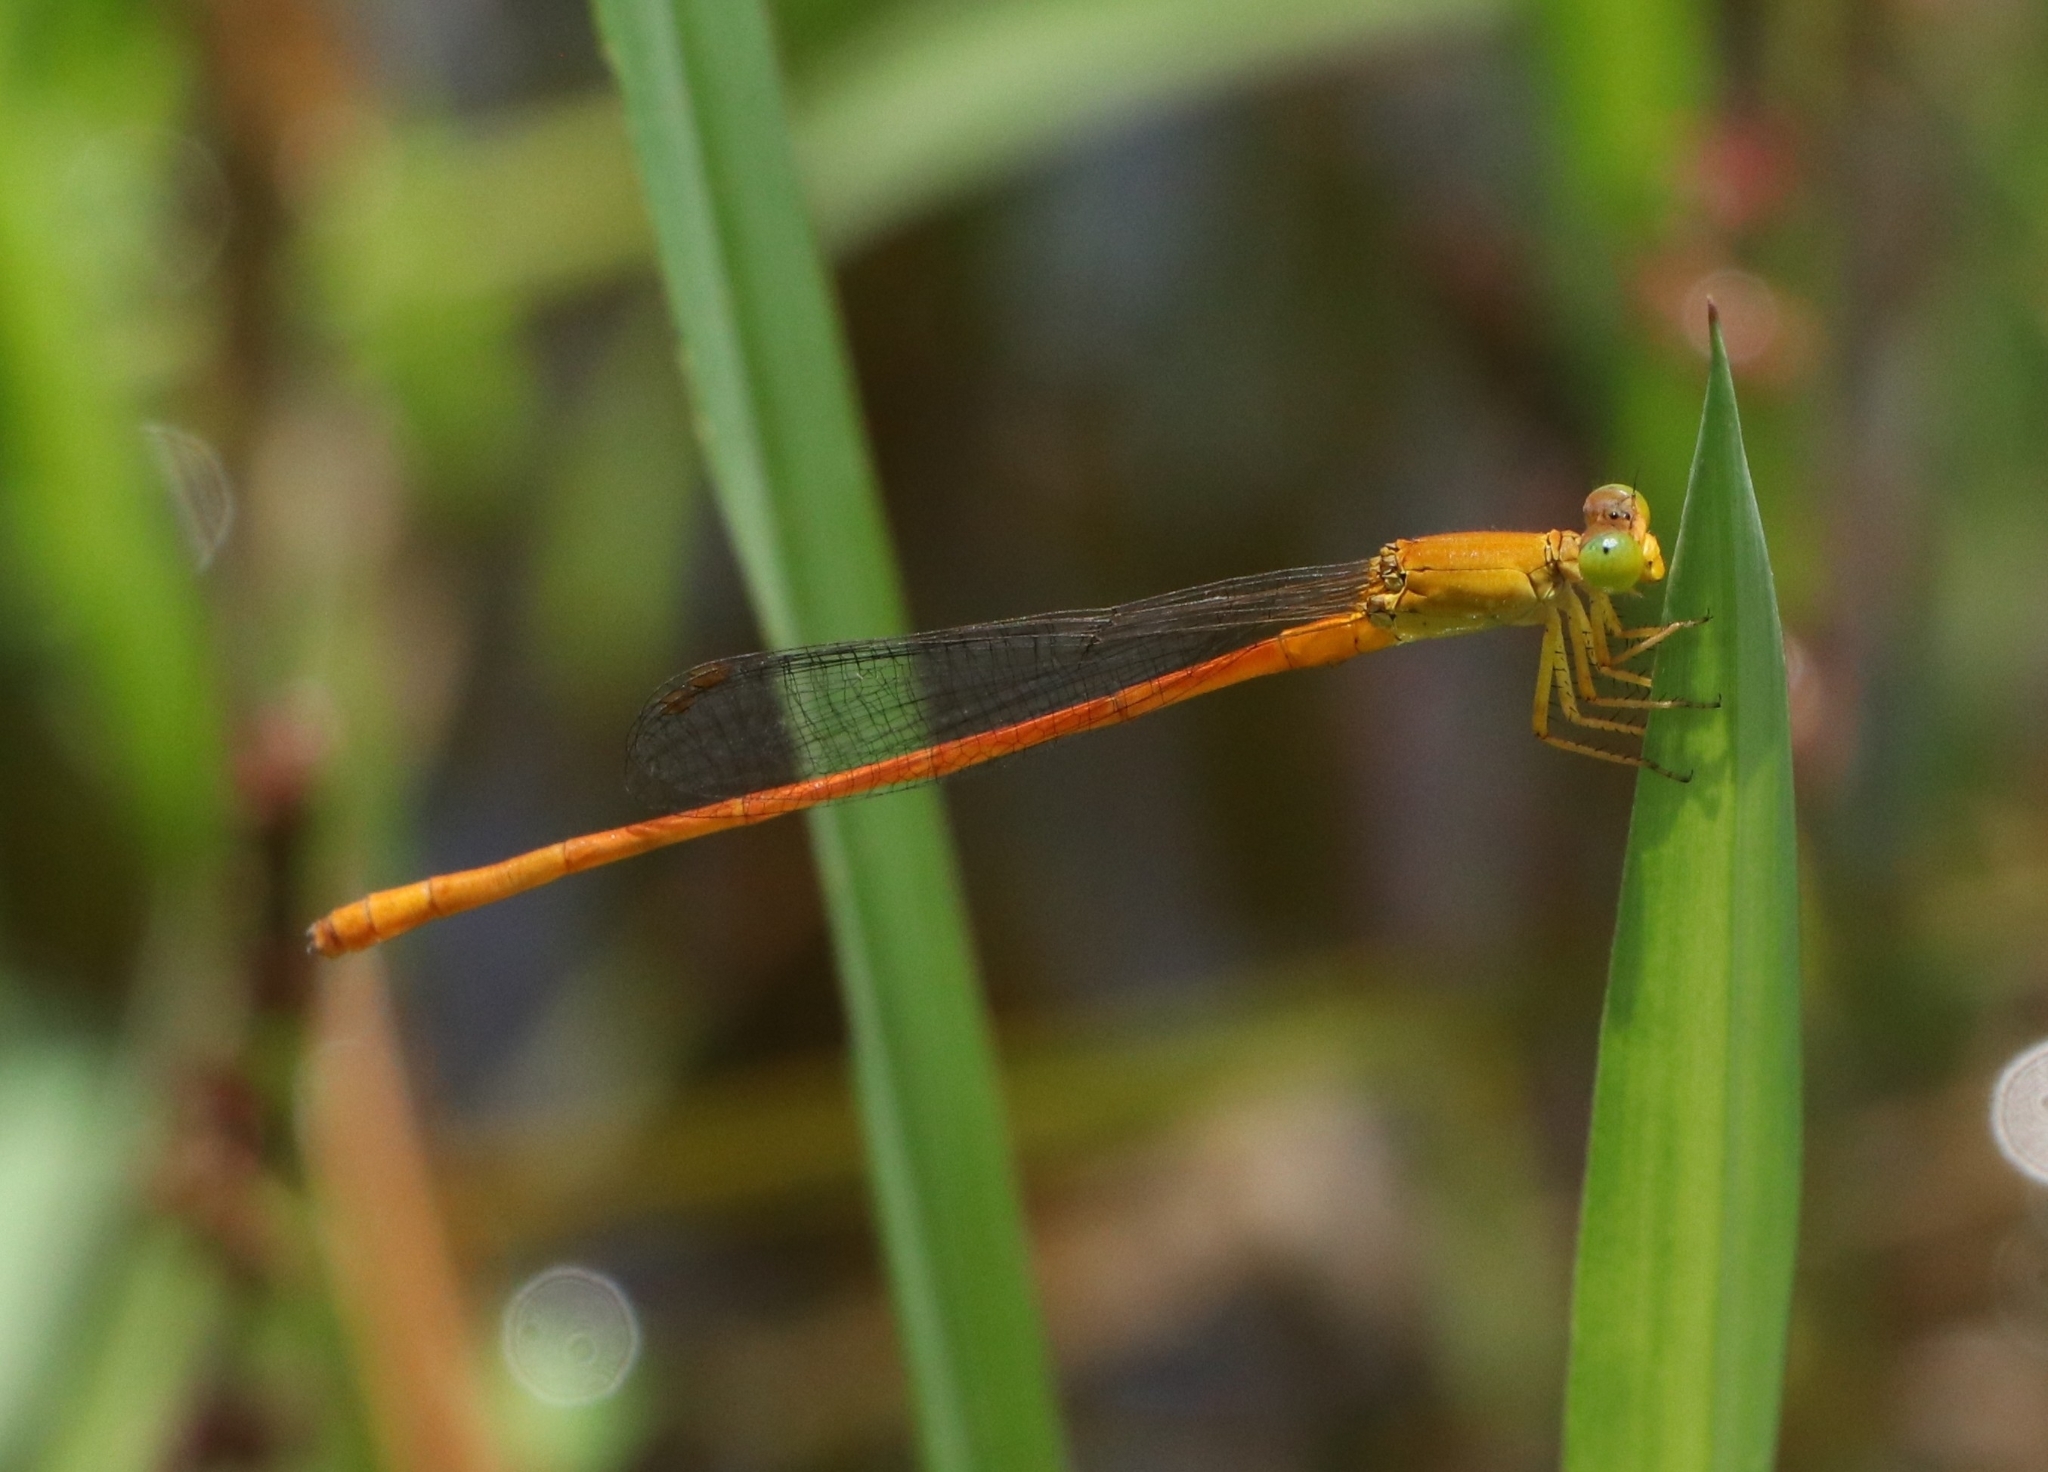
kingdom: Animalia
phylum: Arthropoda
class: Insecta
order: Odonata
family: Coenagrionidae
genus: Ceriagrion
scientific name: Ceriagrion rubiae
